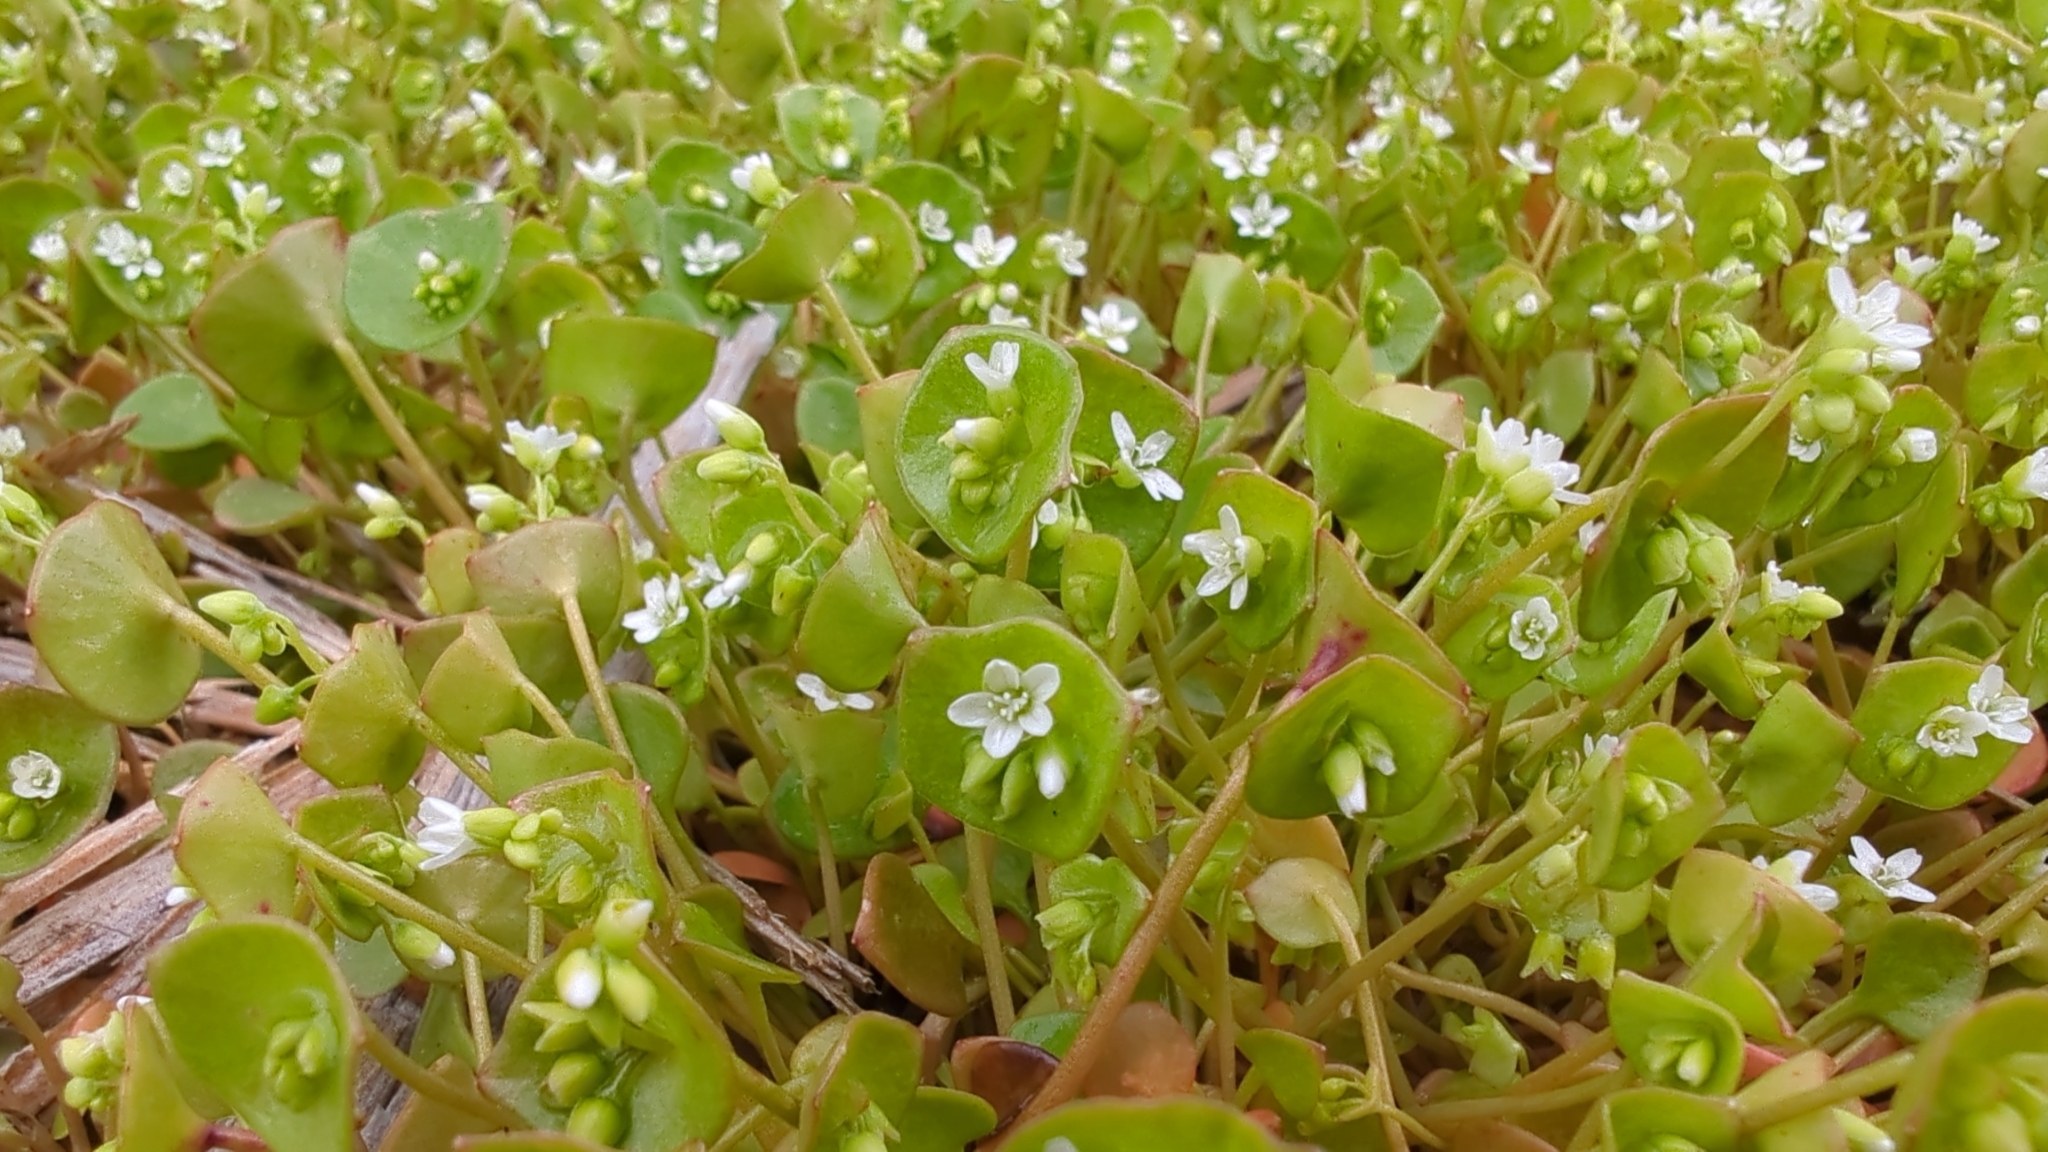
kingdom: Plantae
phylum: Tracheophyta
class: Magnoliopsida
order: Caryophyllales
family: Montiaceae
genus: Claytonia
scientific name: Claytonia perfoliata
